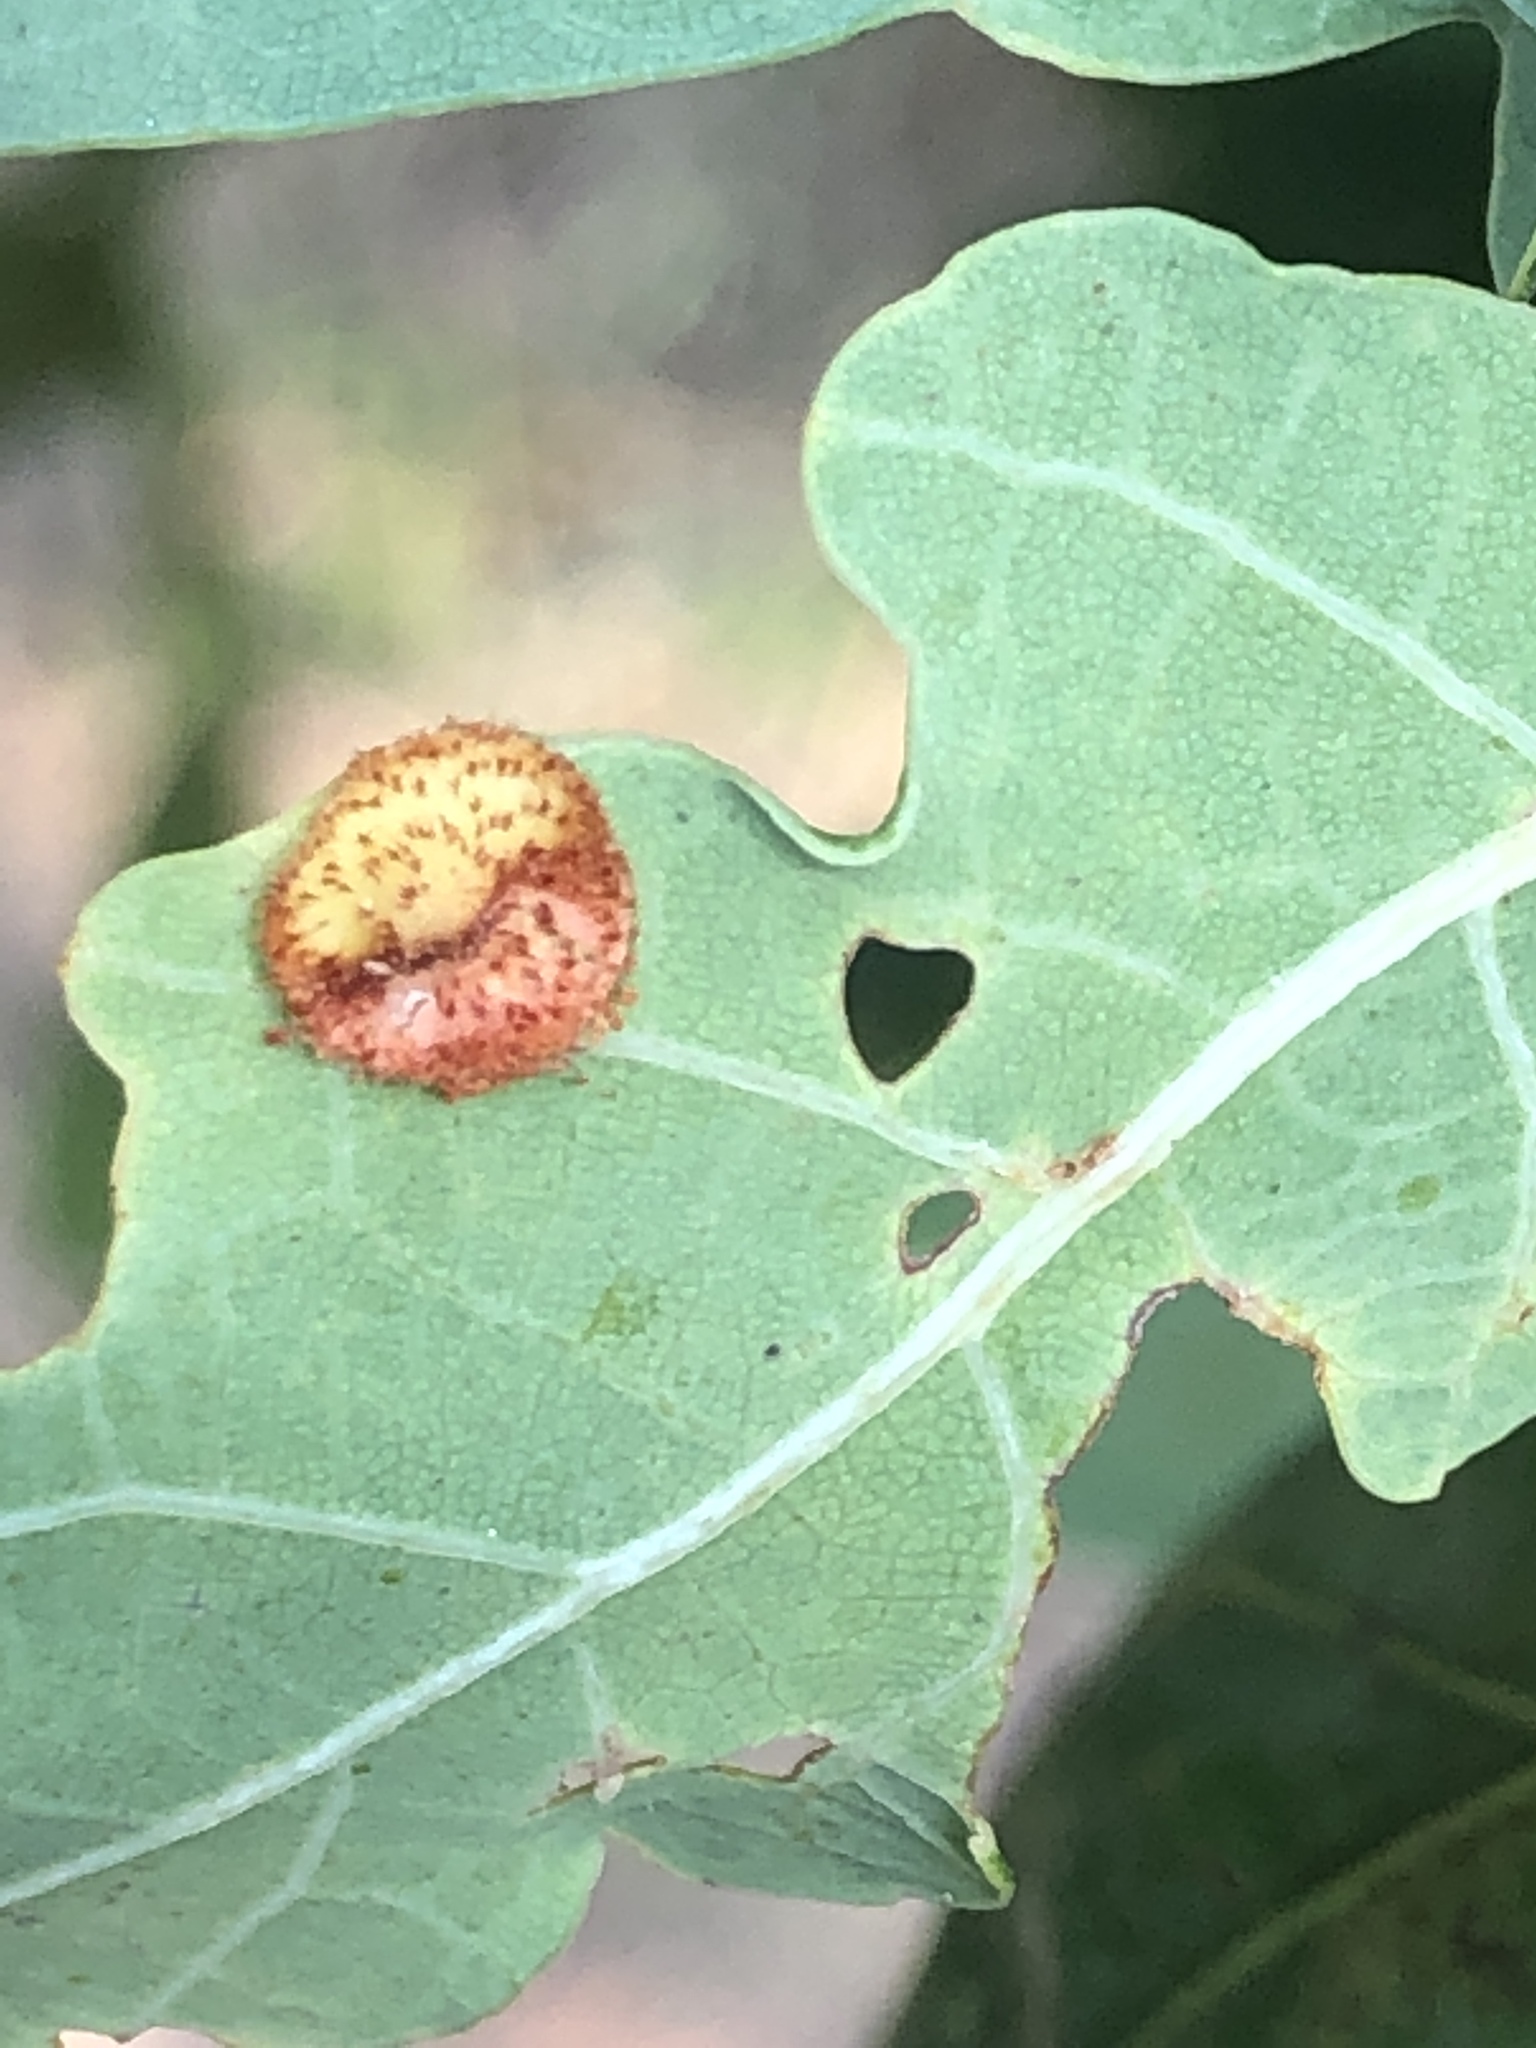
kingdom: Animalia
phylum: Arthropoda
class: Insecta
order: Hymenoptera
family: Cynipidae
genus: Neuroterus
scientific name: Neuroterus quercusbaccarum
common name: Common spangle gall
